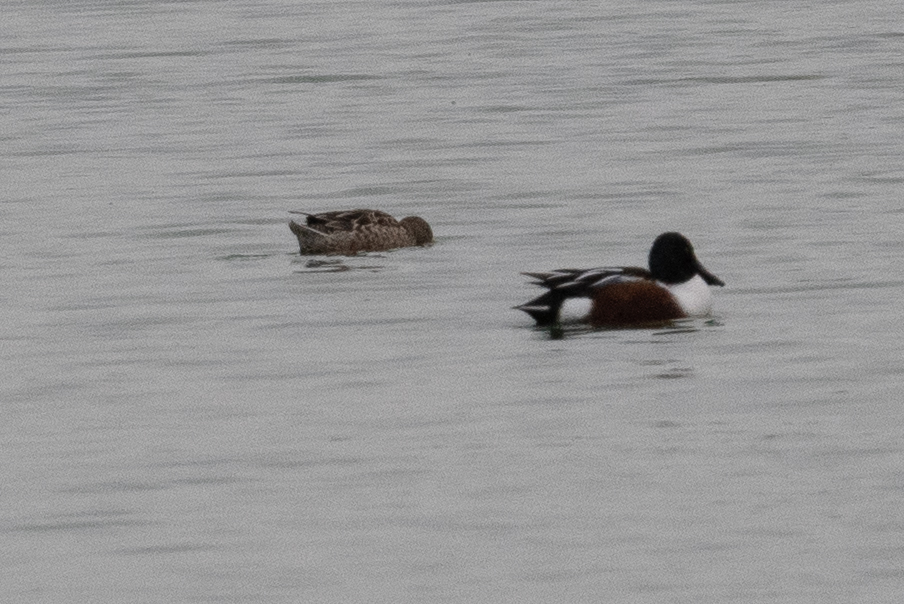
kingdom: Animalia
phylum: Chordata
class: Aves
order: Anseriformes
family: Anatidae
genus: Spatula
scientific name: Spatula clypeata
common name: Northern shoveler
